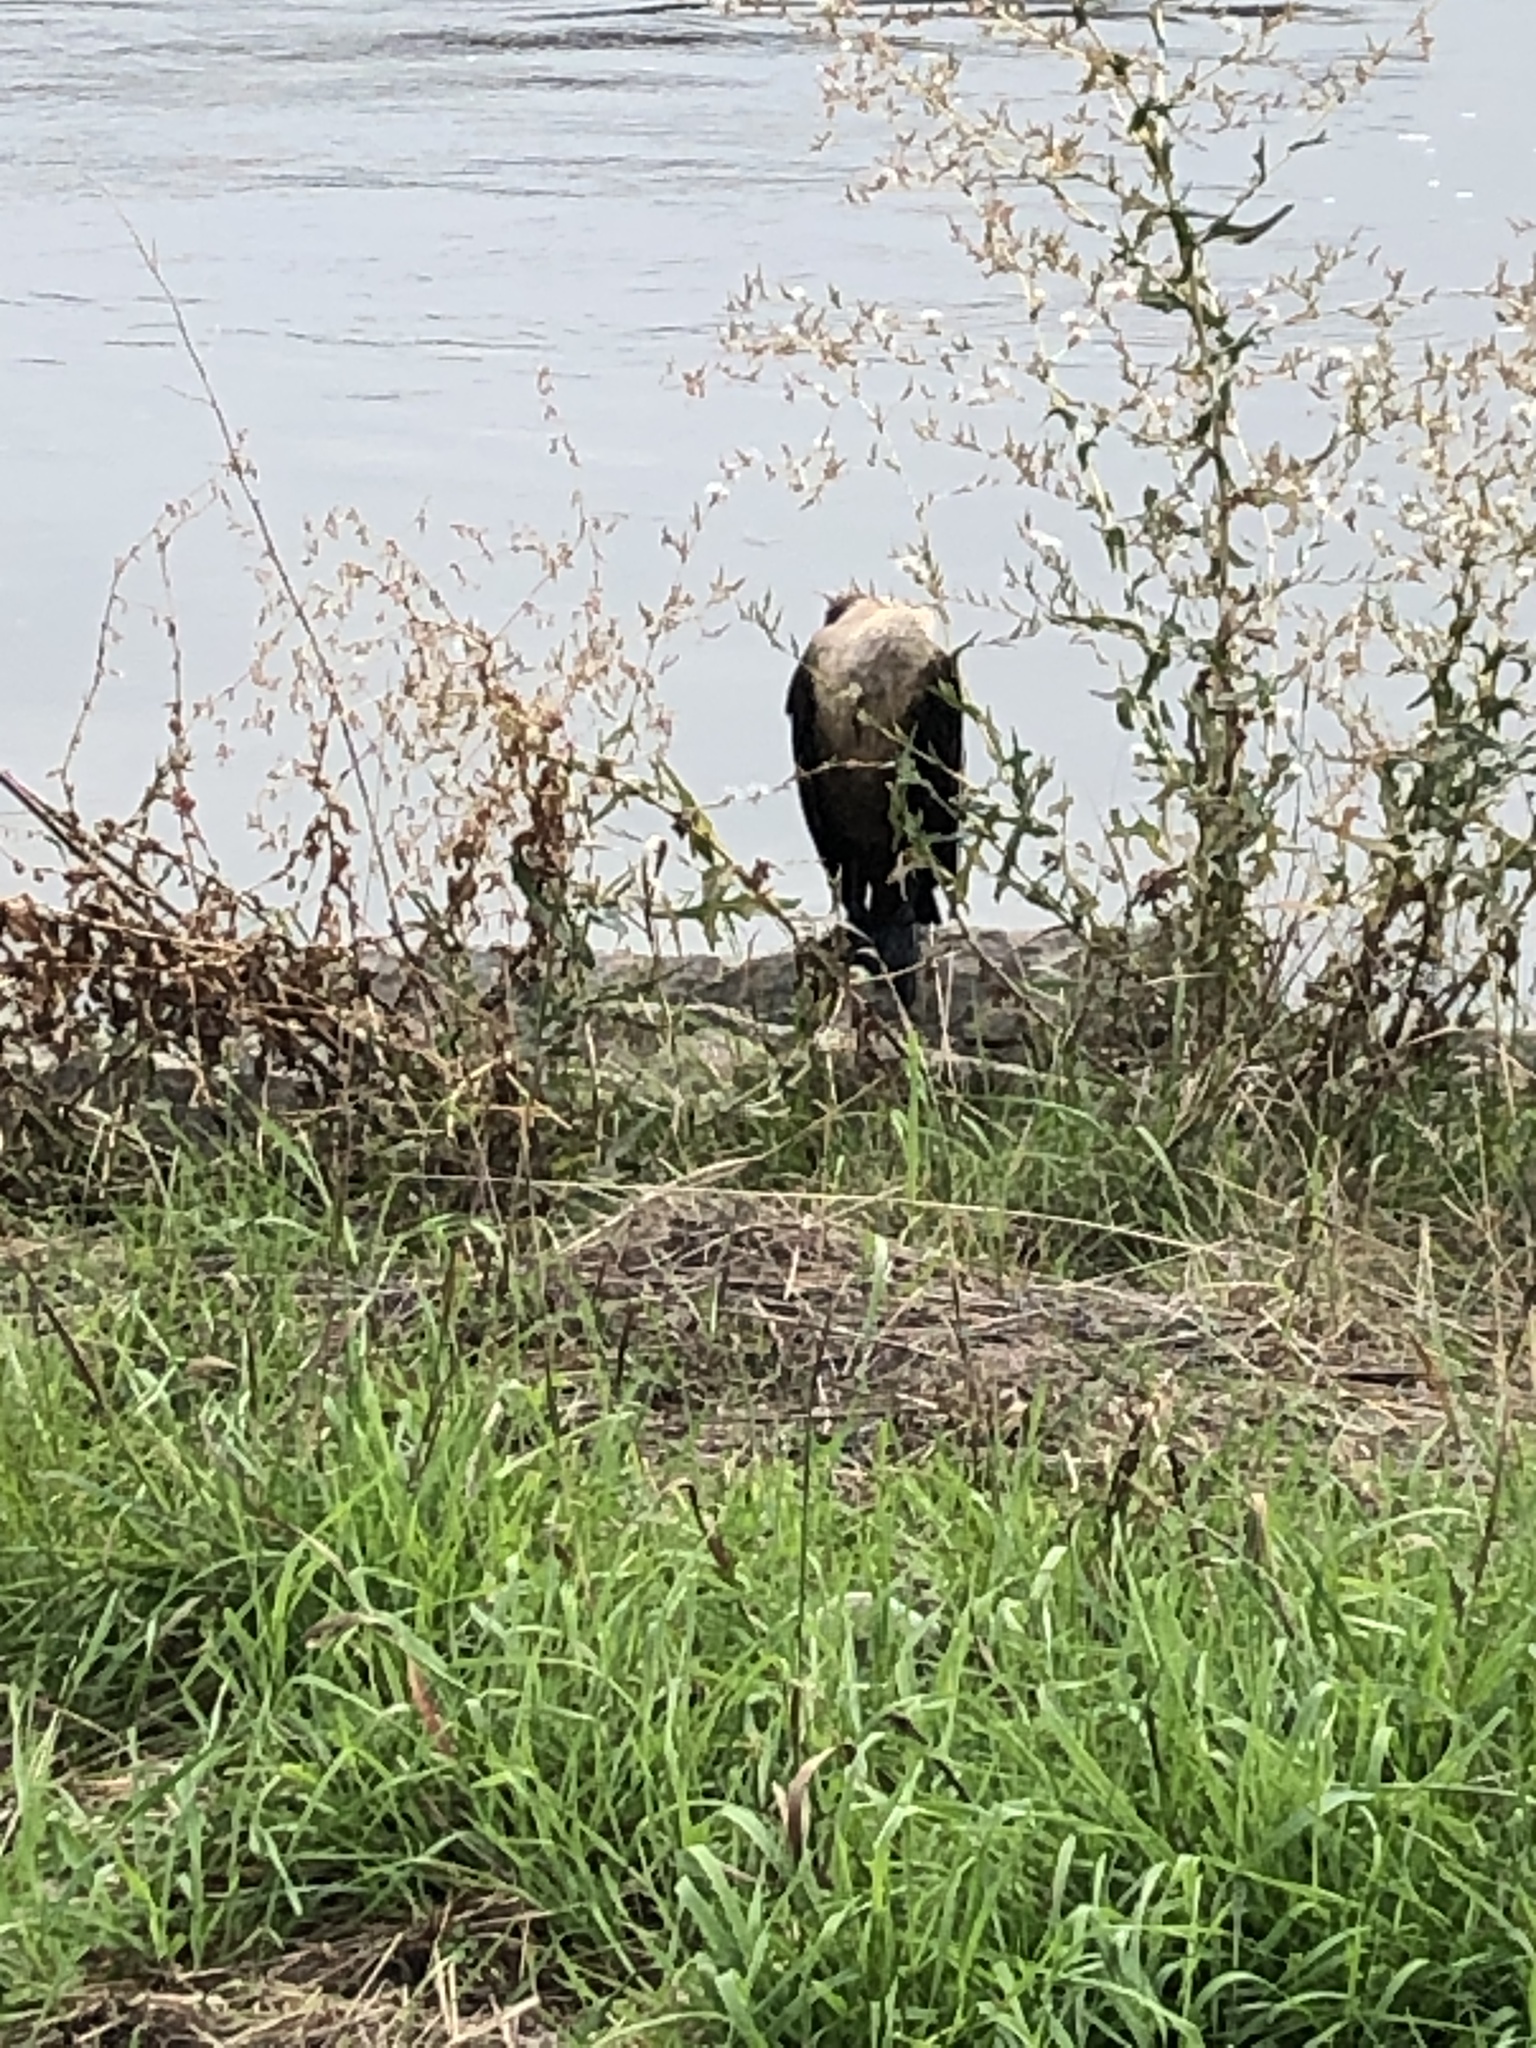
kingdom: Animalia
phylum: Chordata
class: Aves
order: Suliformes
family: Phalacrocoracidae
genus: Phalacrocorax
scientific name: Phalacrocorax auritus
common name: Double-crested cormorant
